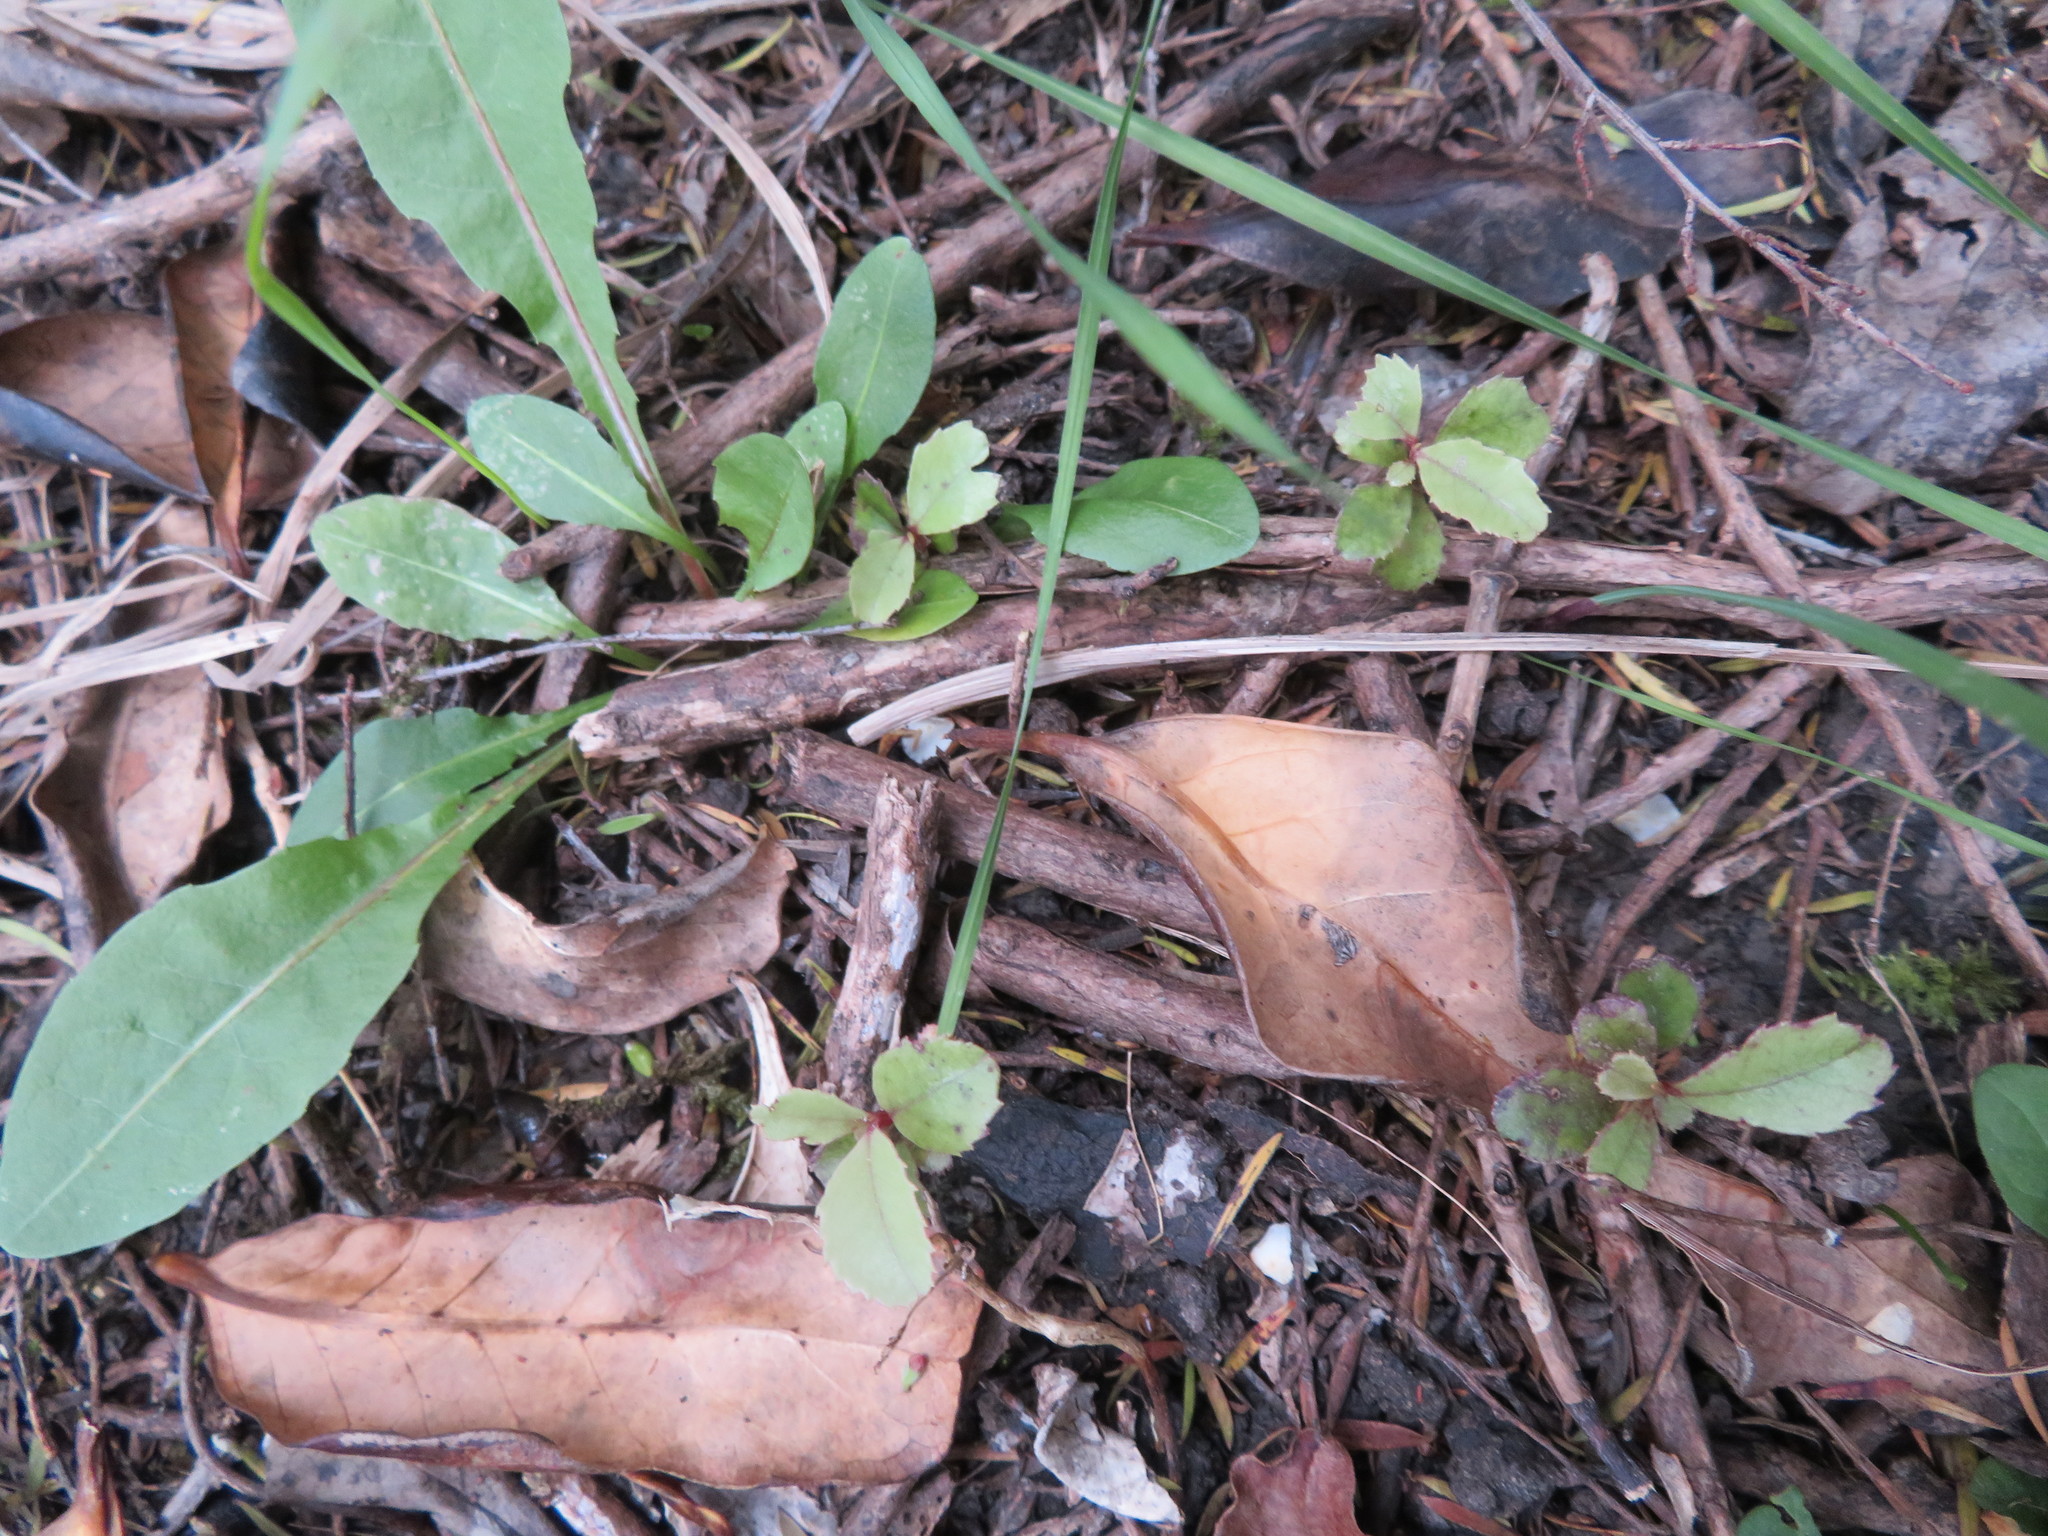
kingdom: Plantae
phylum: Tracheophyta
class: Magnoliopsida
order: Ericales
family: Primulaceae
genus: Myrsine
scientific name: Myrsine australis
